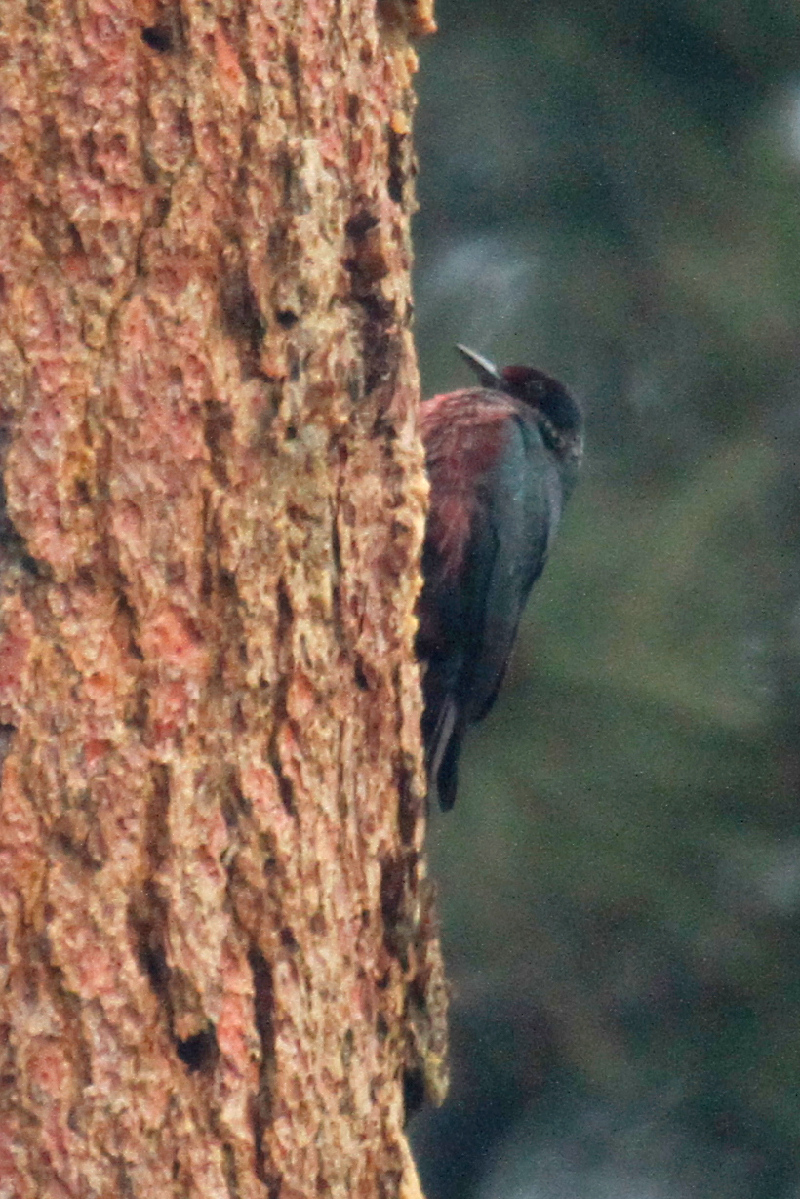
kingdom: Animalia
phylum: Chordata
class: Aves
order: Piciformes
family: Picidae
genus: Melanerpes
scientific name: Melanerpes lewis
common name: Lewis's woodpecker
